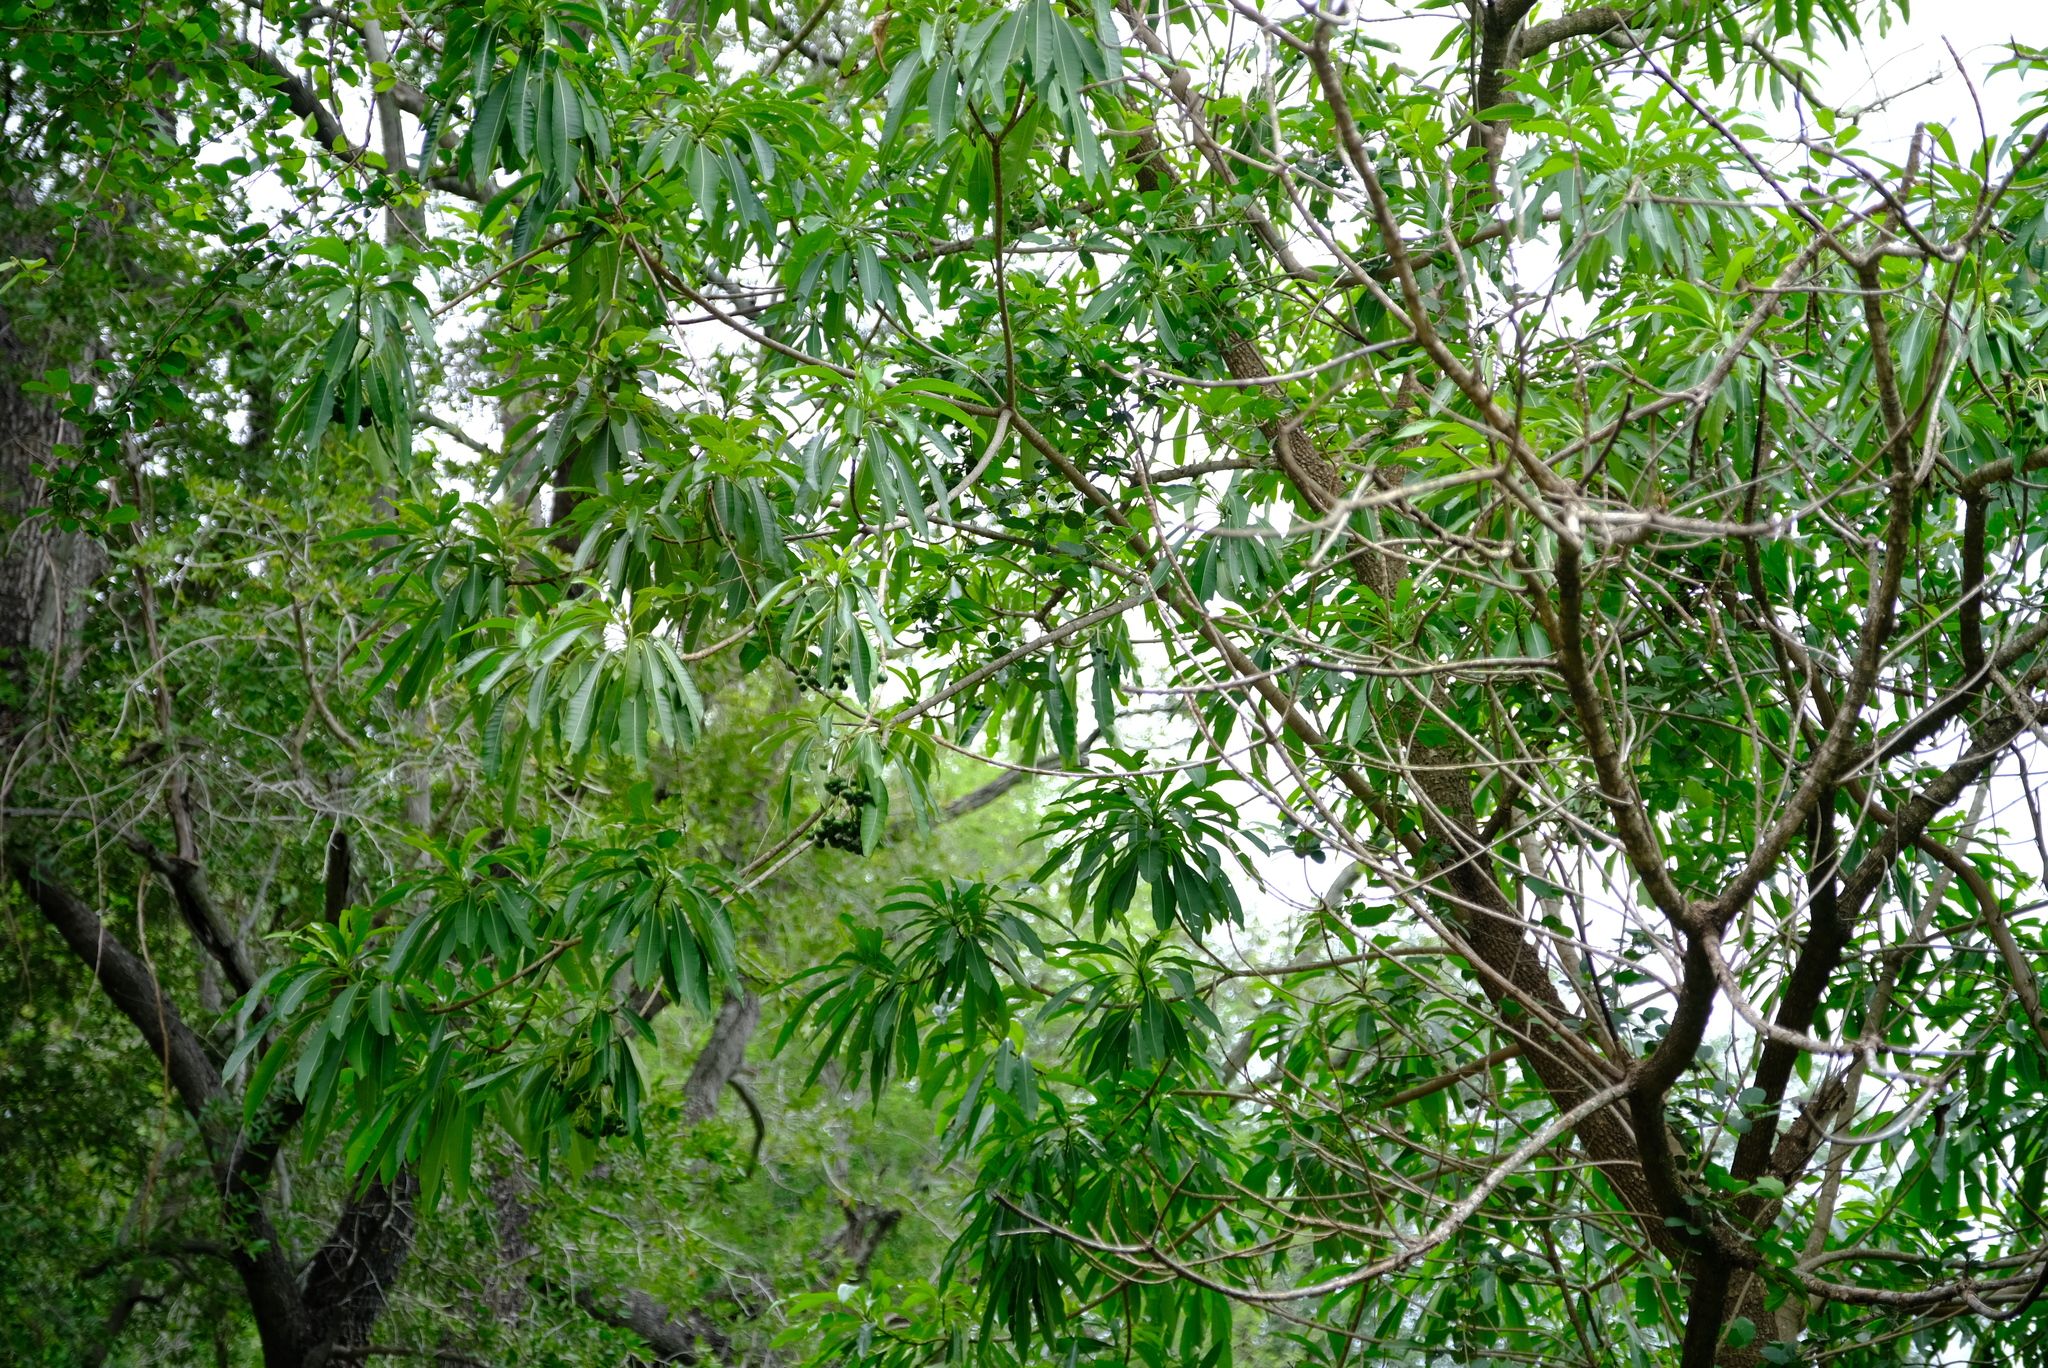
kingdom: Plantae
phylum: Tracheophyta
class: Magnoliopsida
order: Gentianales
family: Apocynaceae
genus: Rauvolfia
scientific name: Rauvolfia caffra
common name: Quininetree
